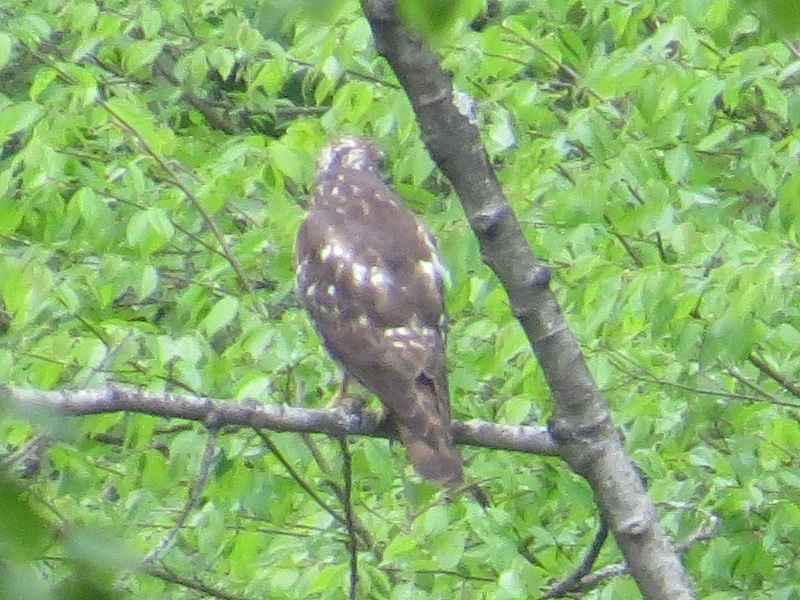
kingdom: Animalia
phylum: Chordata
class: Aves
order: Accipitriformes
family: Accipitridae
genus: Buteo
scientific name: Buteo platypterus
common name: Broad-winged hawk
